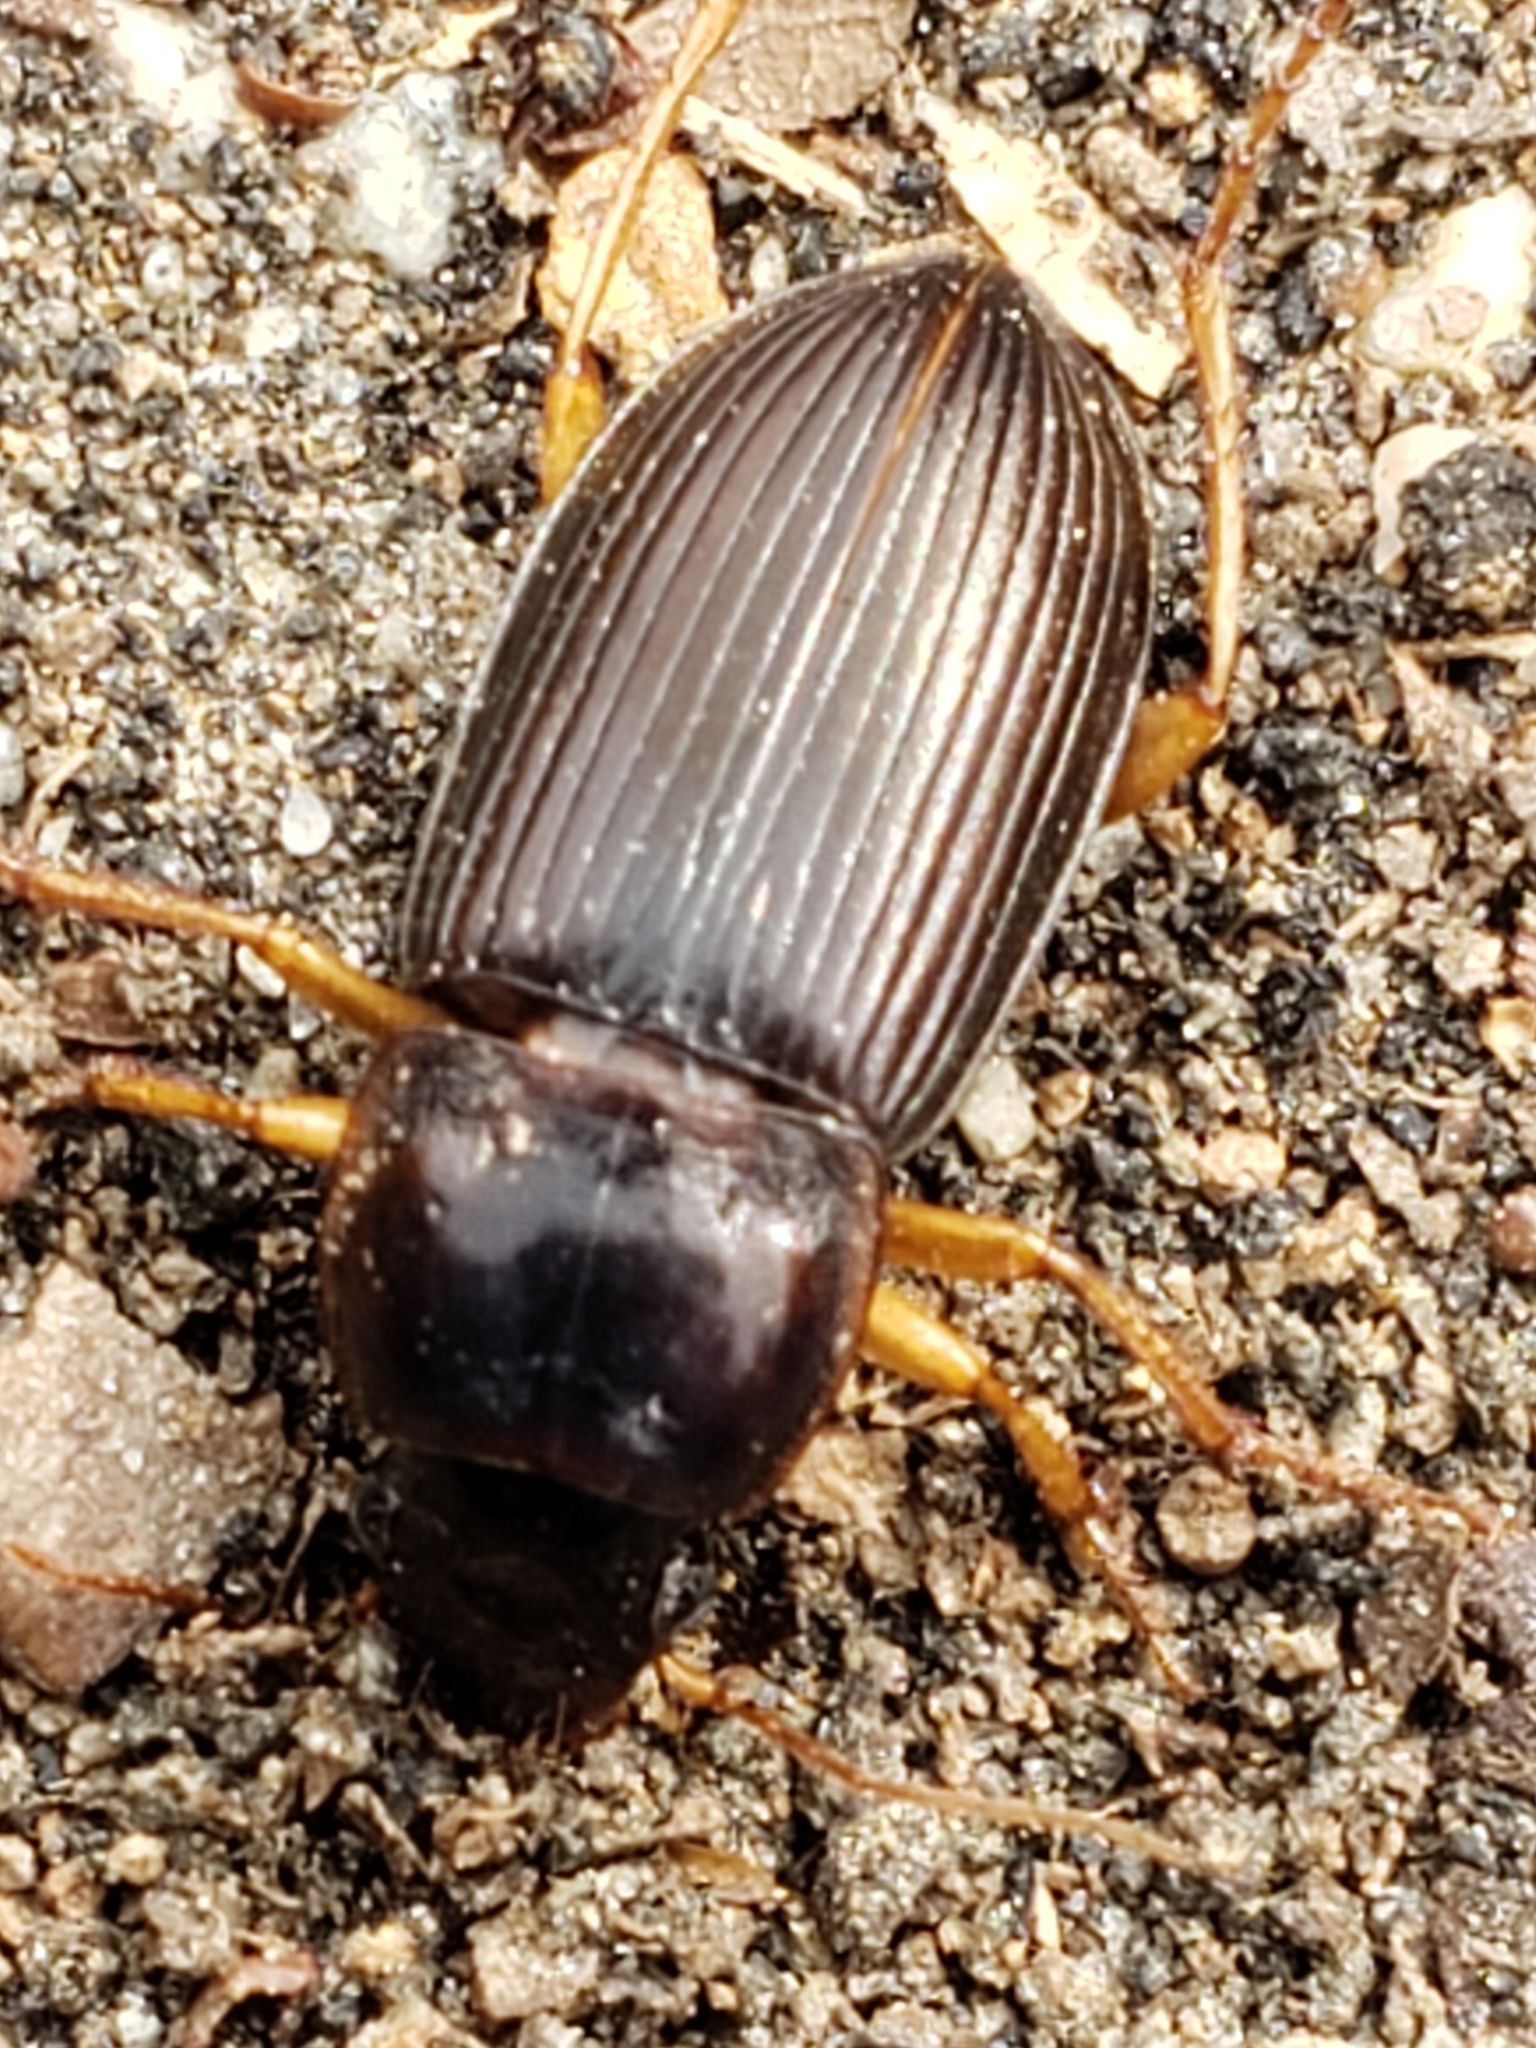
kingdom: Animalia
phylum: Arthropoda
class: Insecta
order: Coleoptera
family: Carabidae
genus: Harpalus
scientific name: Harpalus pensylvanicus
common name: Pennsylvania dingy ground beetle
